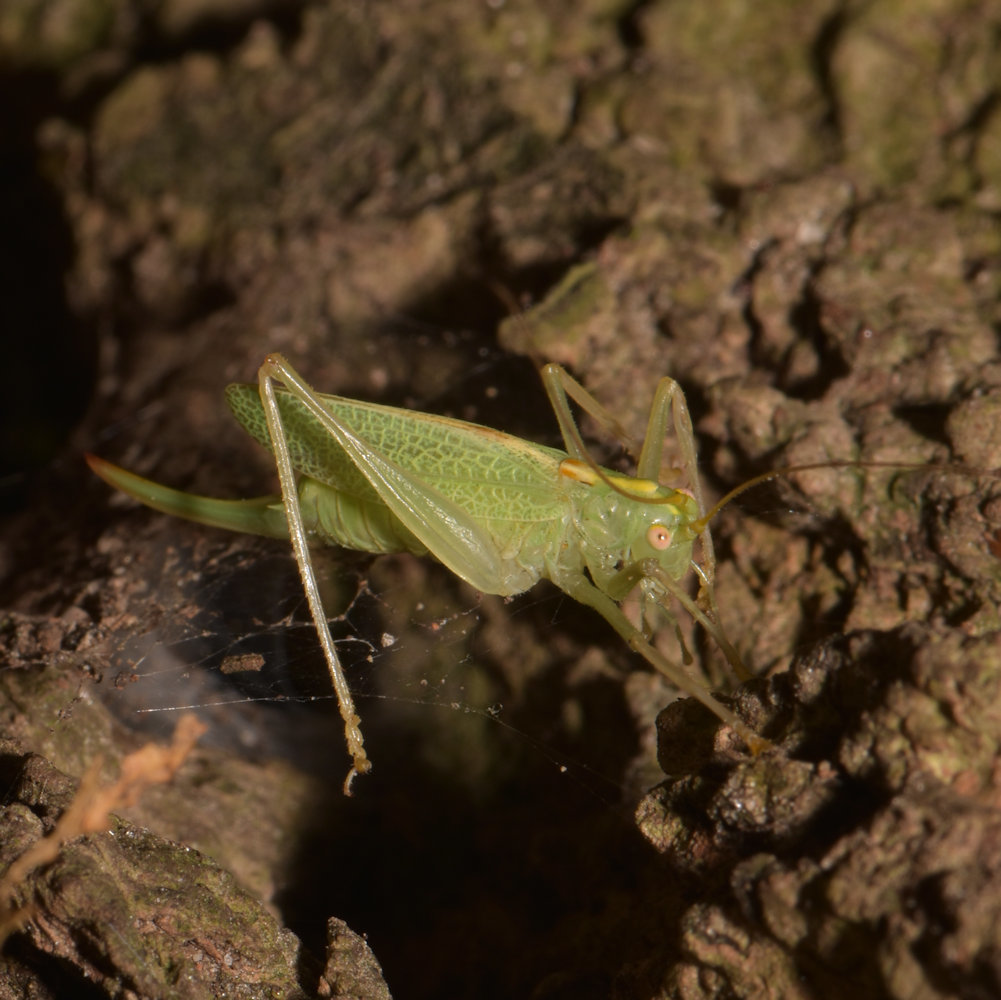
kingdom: Animalia
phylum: Arthropoda
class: Insecta
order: Orthoptera
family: Tettigoniidae
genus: Meconema
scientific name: Meconema thalassinum
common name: Oak bush-cricket
